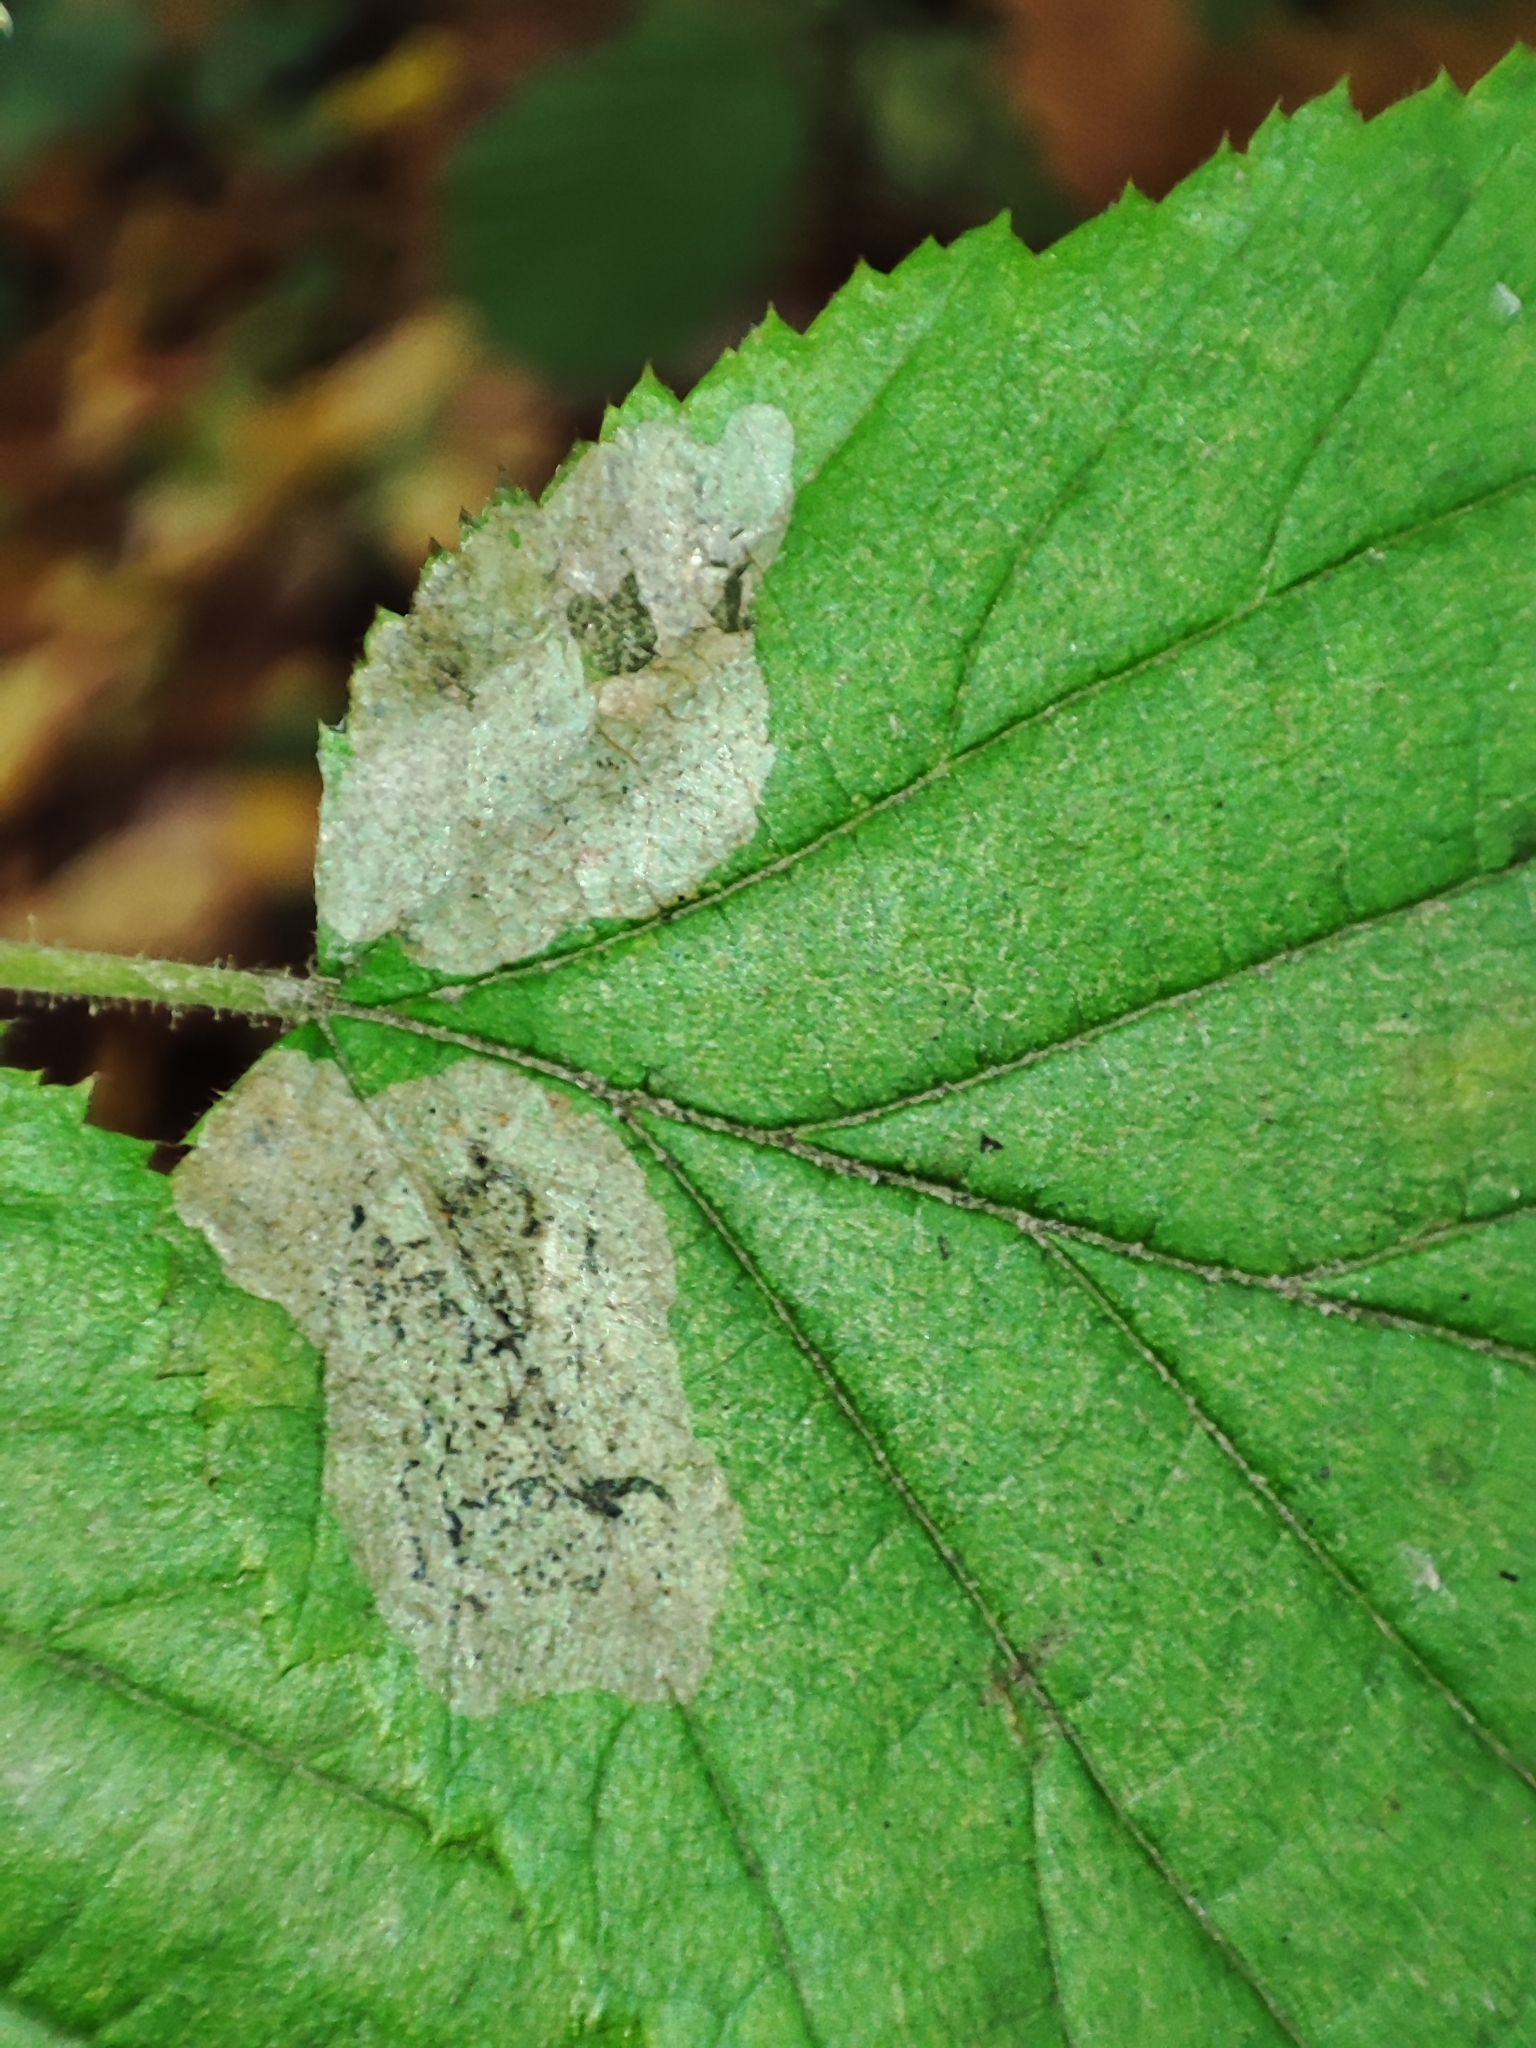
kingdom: Plantae
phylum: Tracheophyta
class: Magnoliopsida
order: Fagales
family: Betulaceae
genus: Corylus
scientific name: Corylus avellana
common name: European hazel
